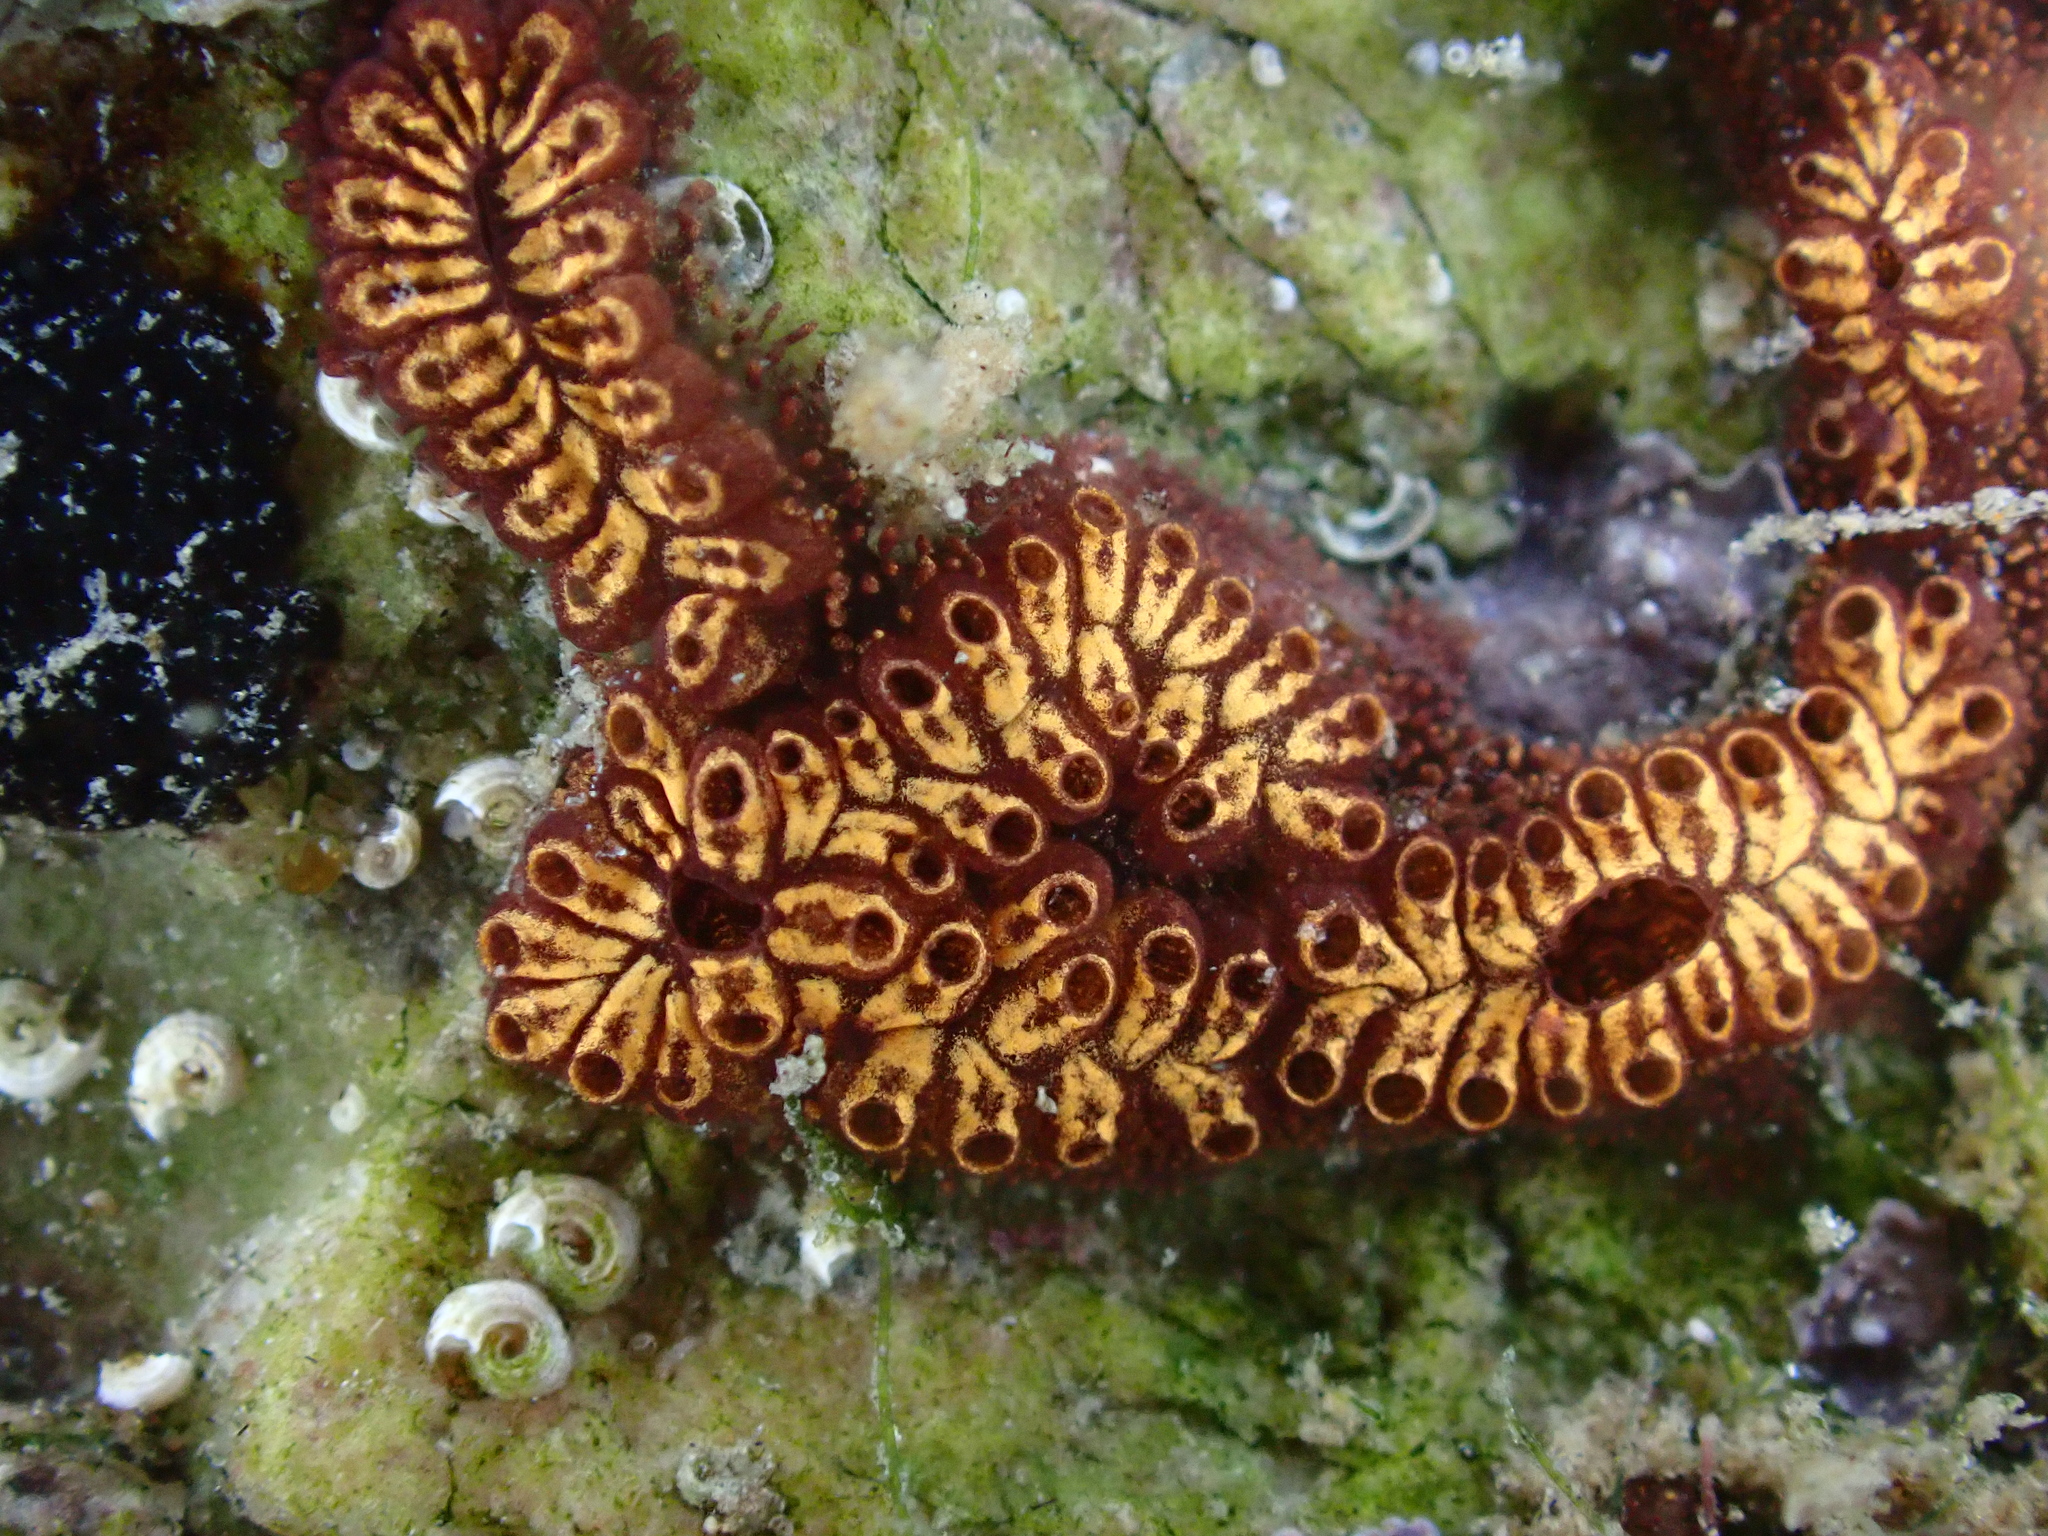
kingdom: Animalia
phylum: Chordata
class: Ascidiacea
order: Stolidobranchia
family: Styelidae
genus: Botrylloides
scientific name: Botrylloides niger
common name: Black synascidia
